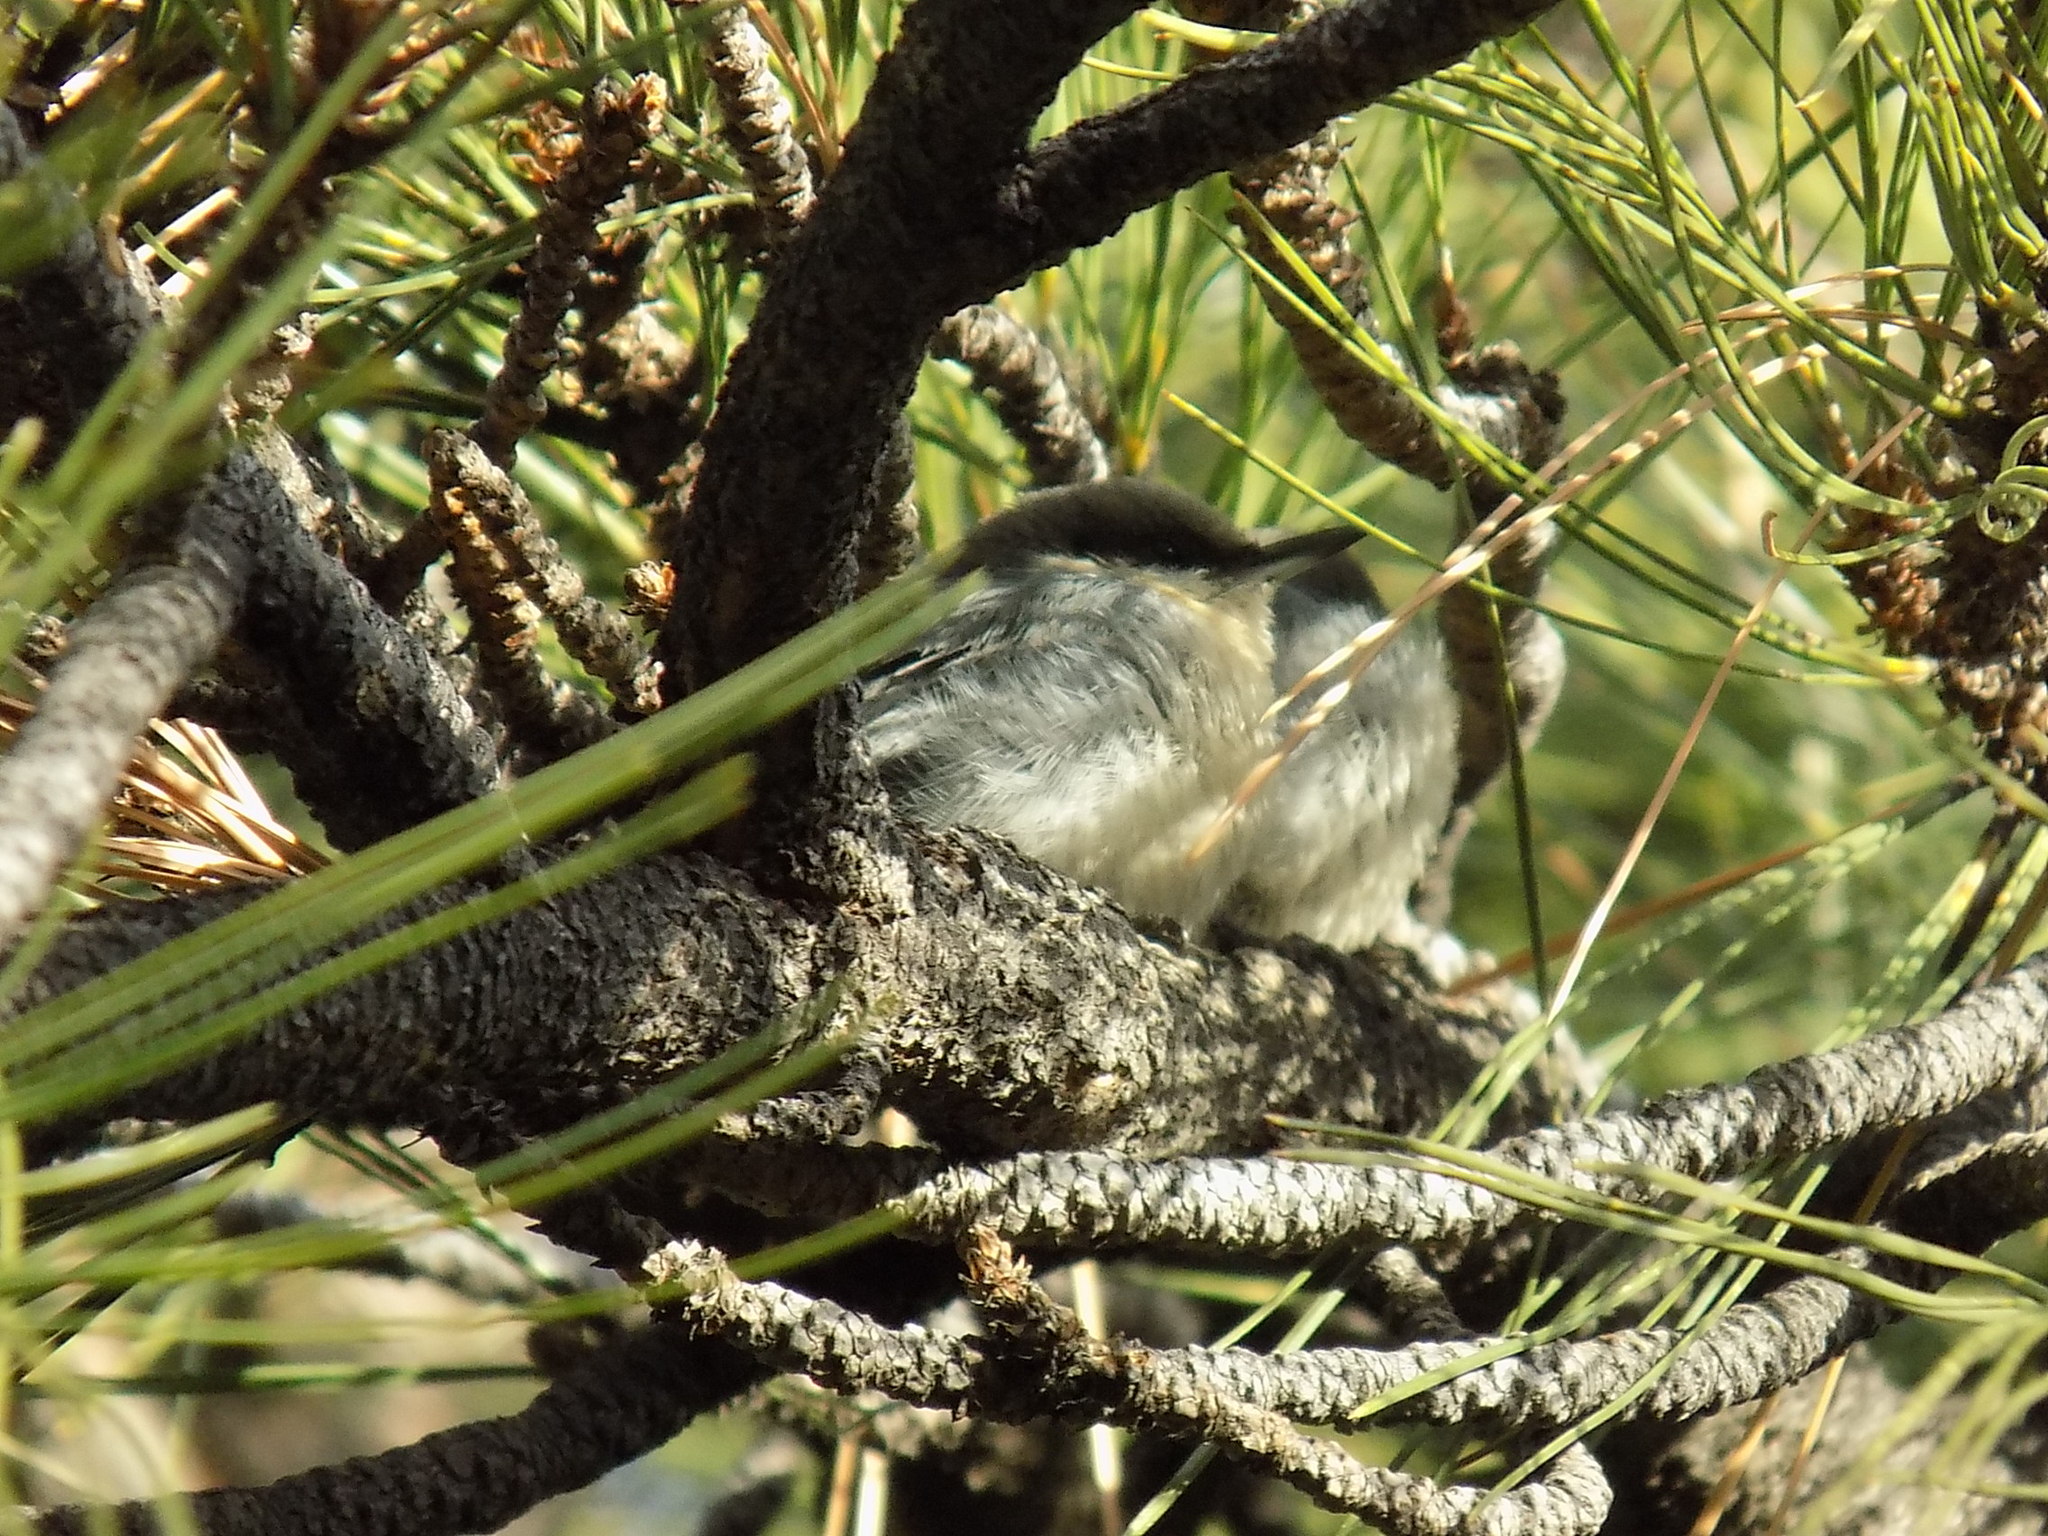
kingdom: Animalia
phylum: Chordata
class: Aves
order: Passeriformes
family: Sittidae
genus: Sitta
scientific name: Sitta pygmaea
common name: Pygmy nuthatch
